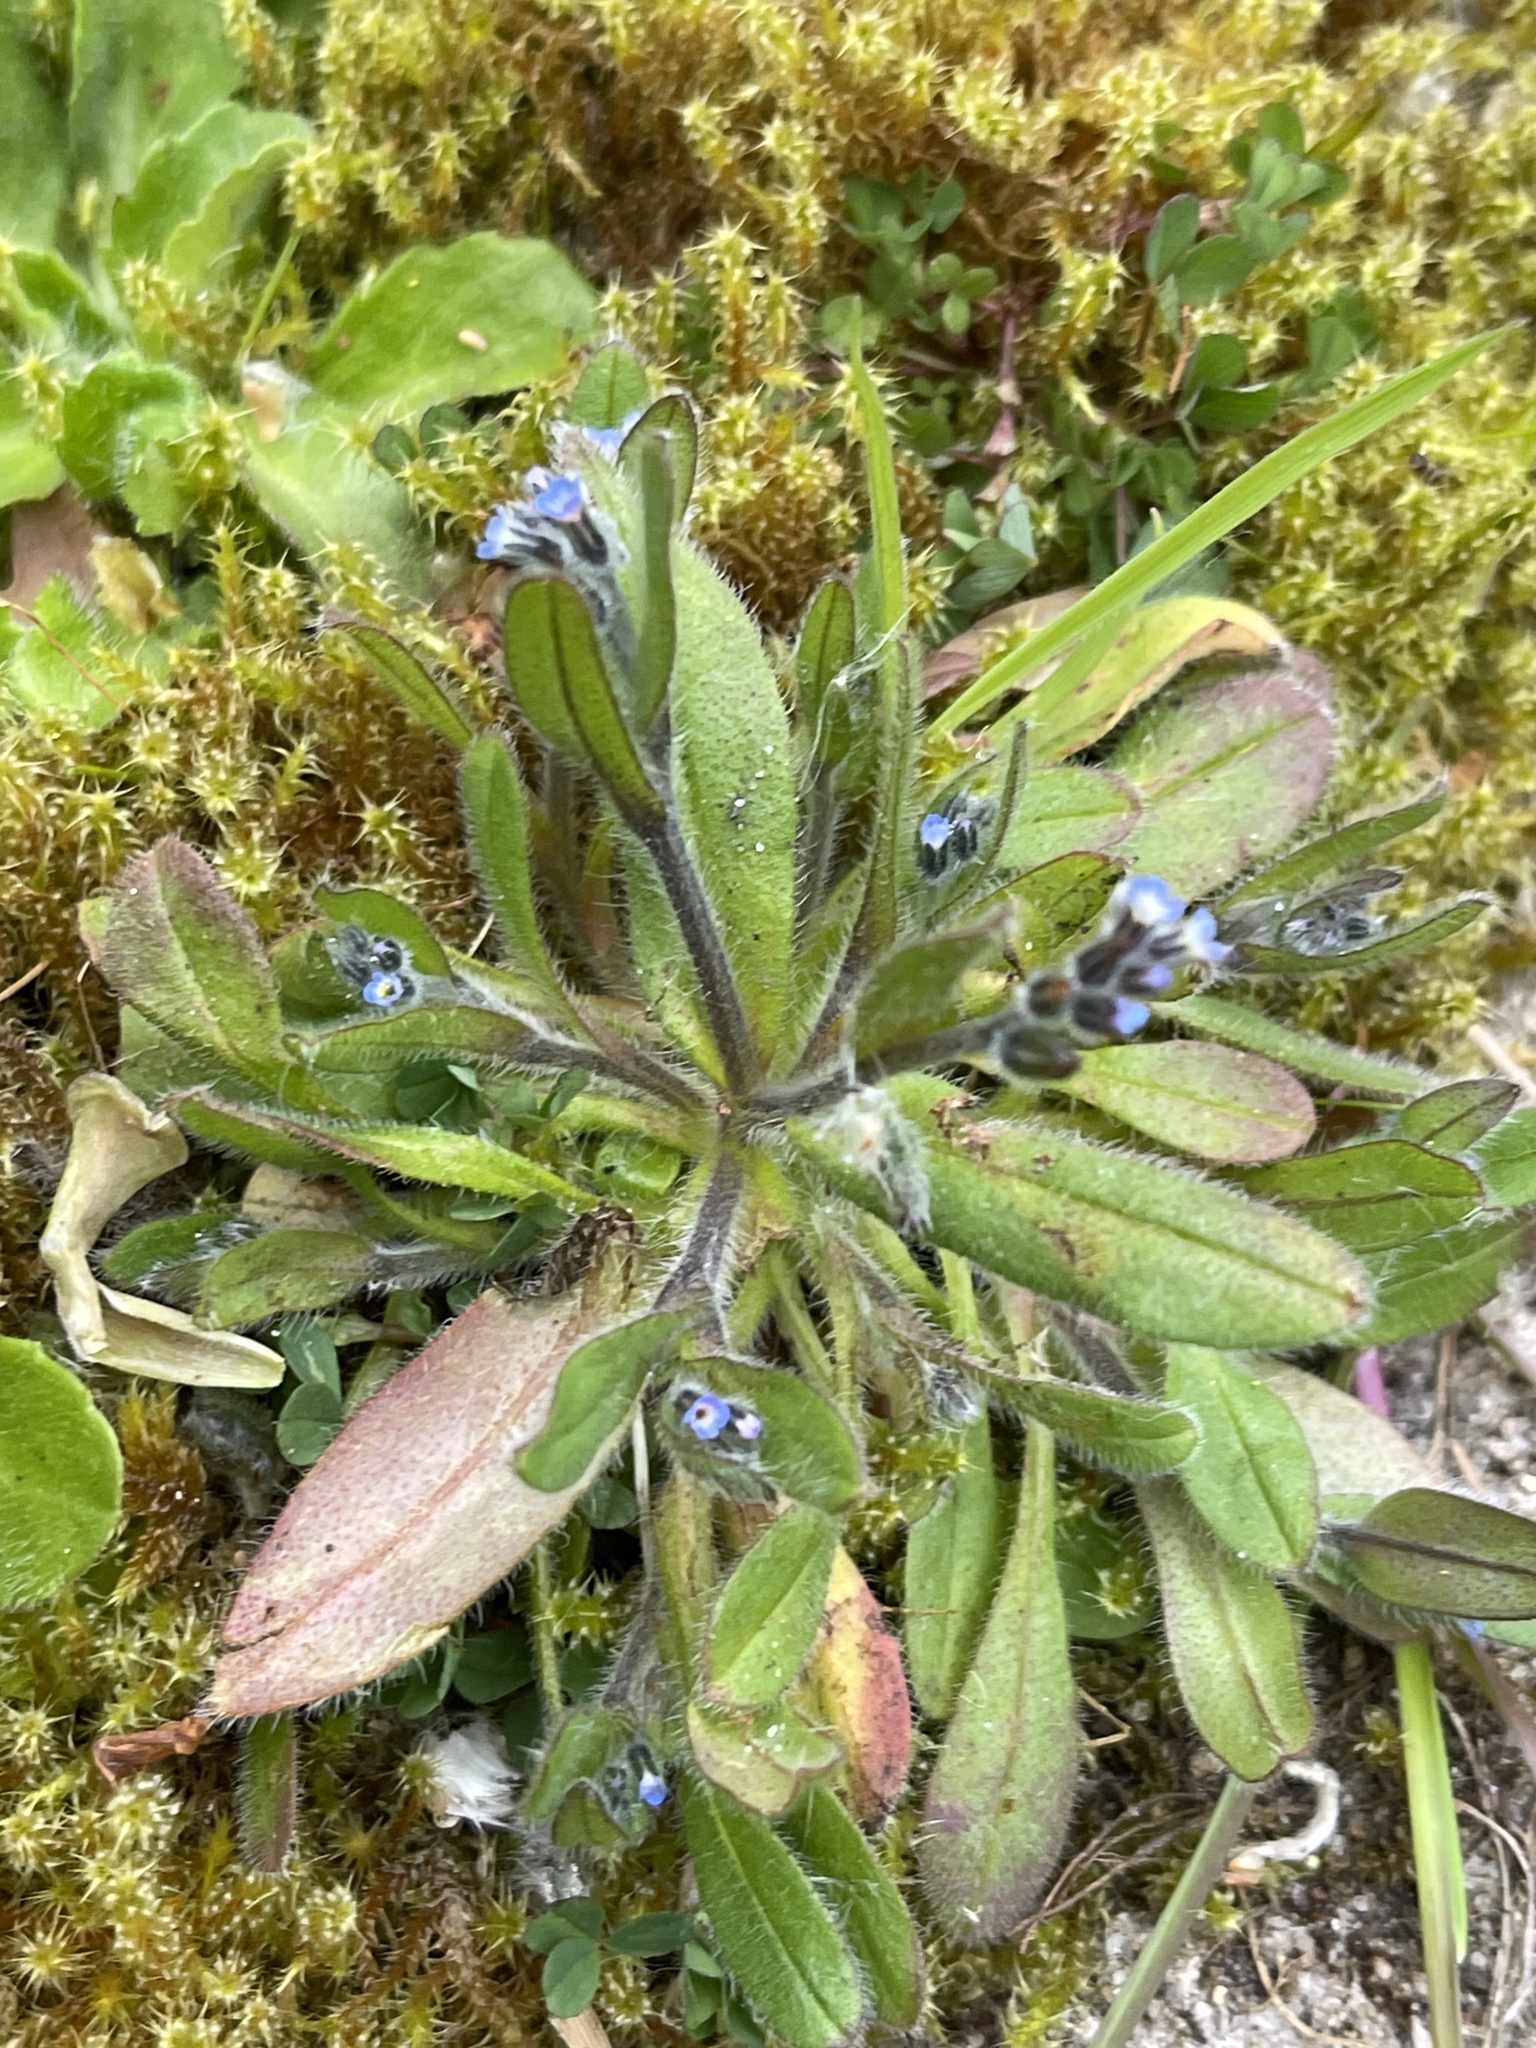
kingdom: Plantae
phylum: Tracheophyta
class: Magnoliopsida
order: Boraginales
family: Boraginaceae
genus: Myosotis
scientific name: Myosotis arvensis
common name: Field forget-me-not
